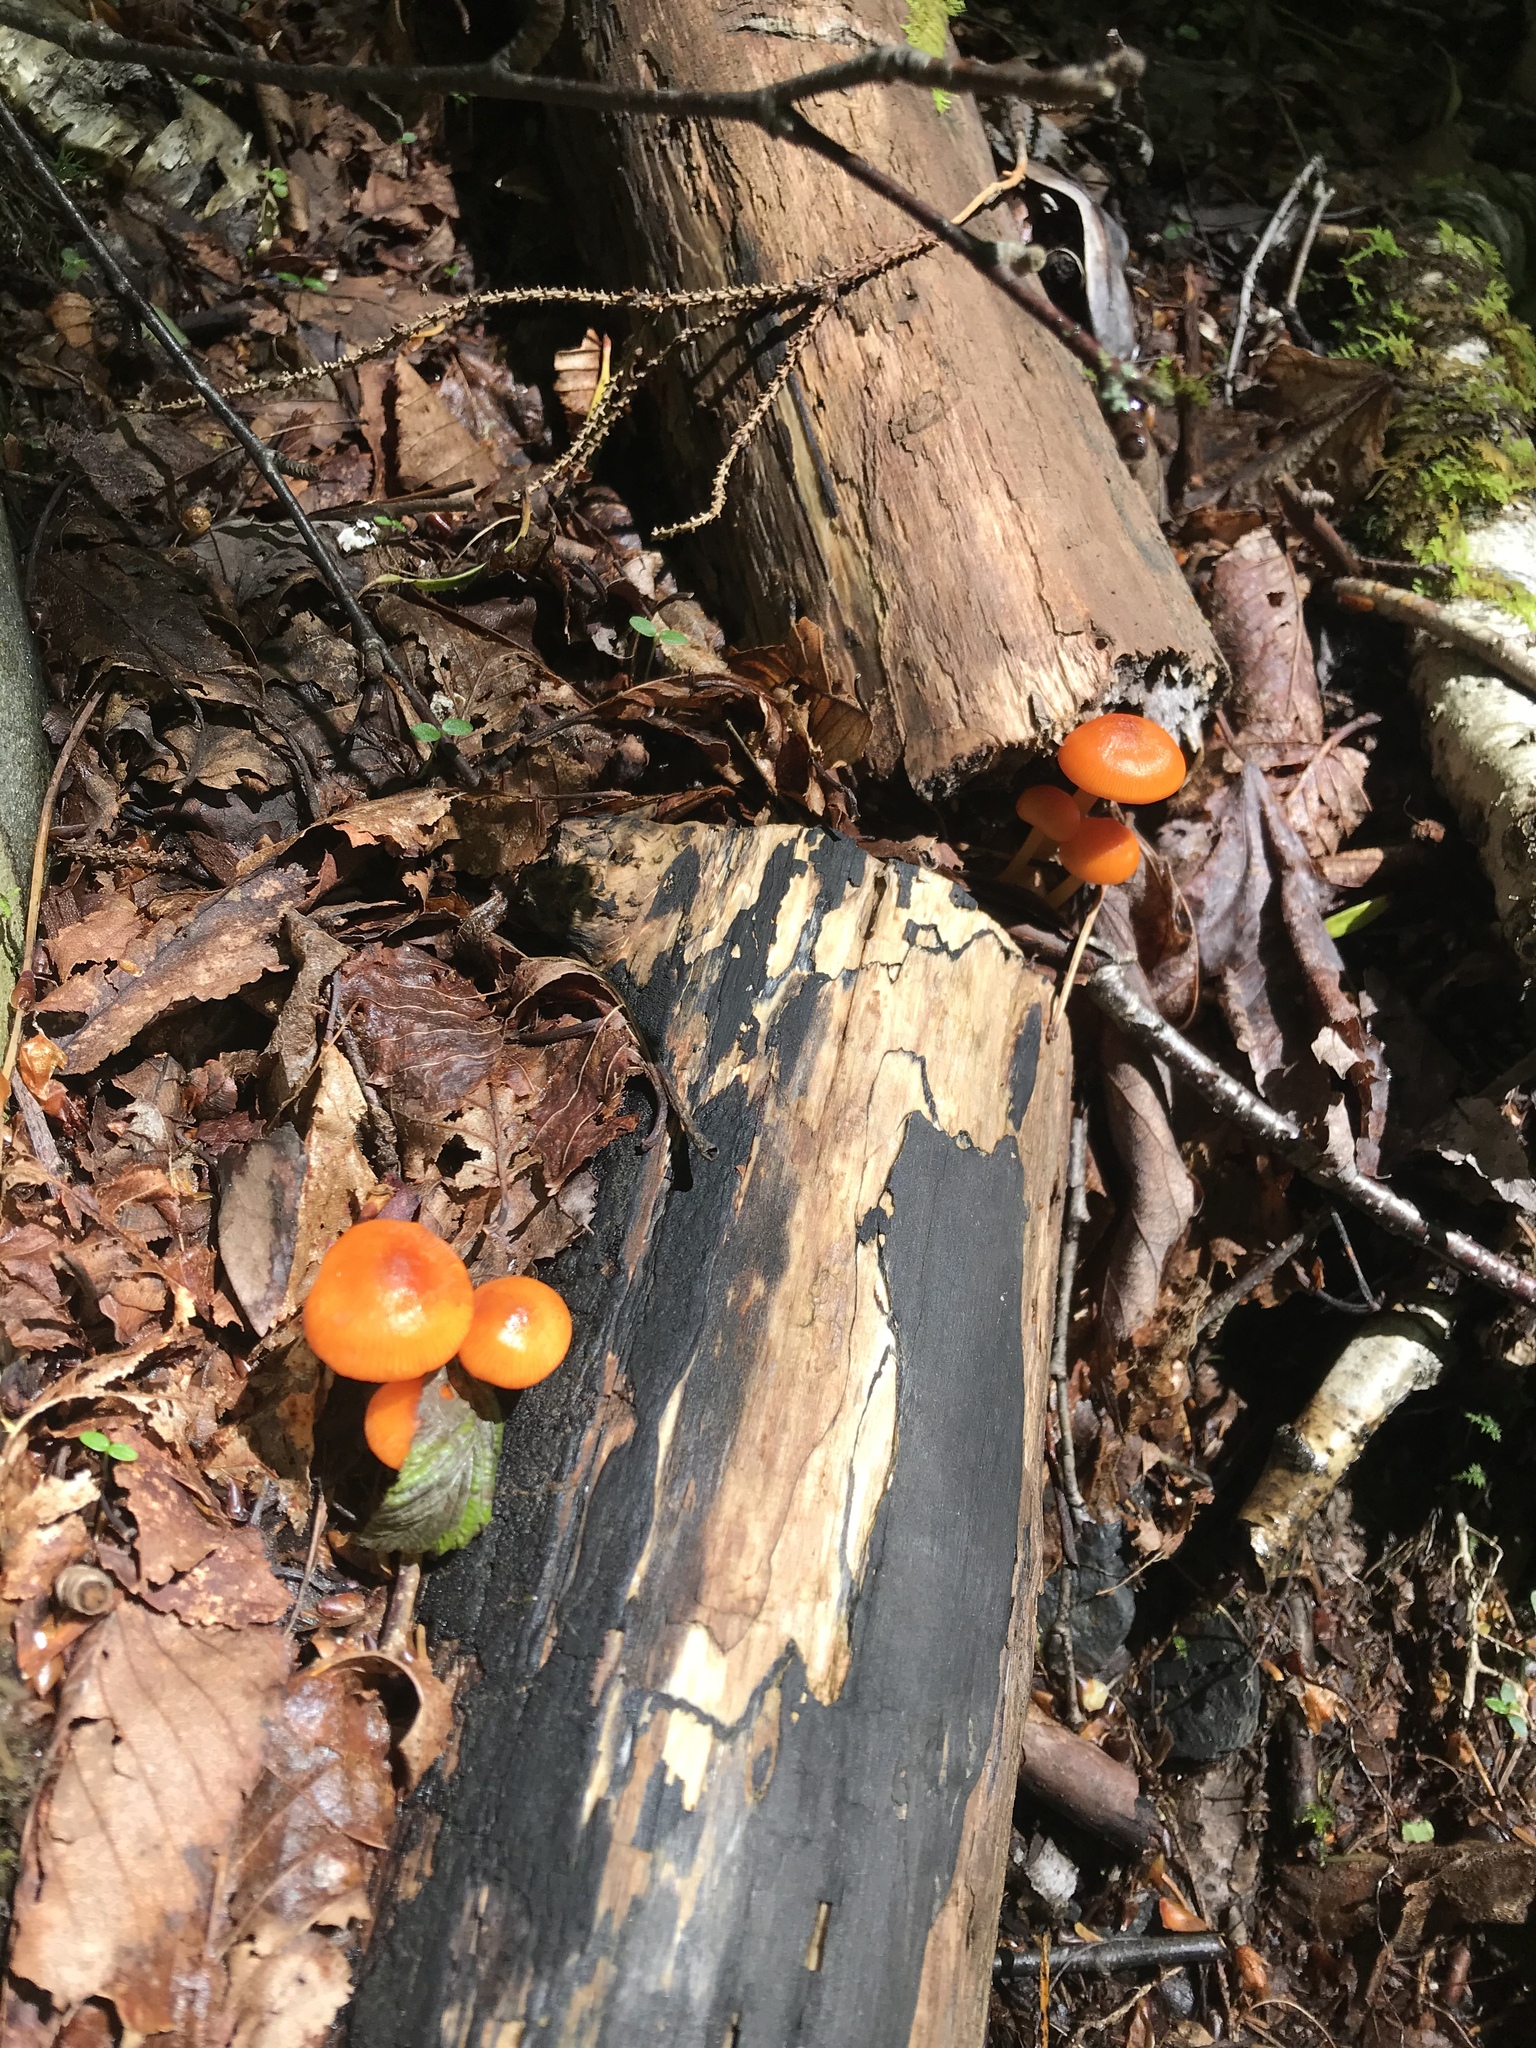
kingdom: Fungi
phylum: Basidiomycota
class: Agaricomycetes
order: Agaricales
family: Mycenaceae
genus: Mycena
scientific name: Mycena leaiana
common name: Orange mycena
